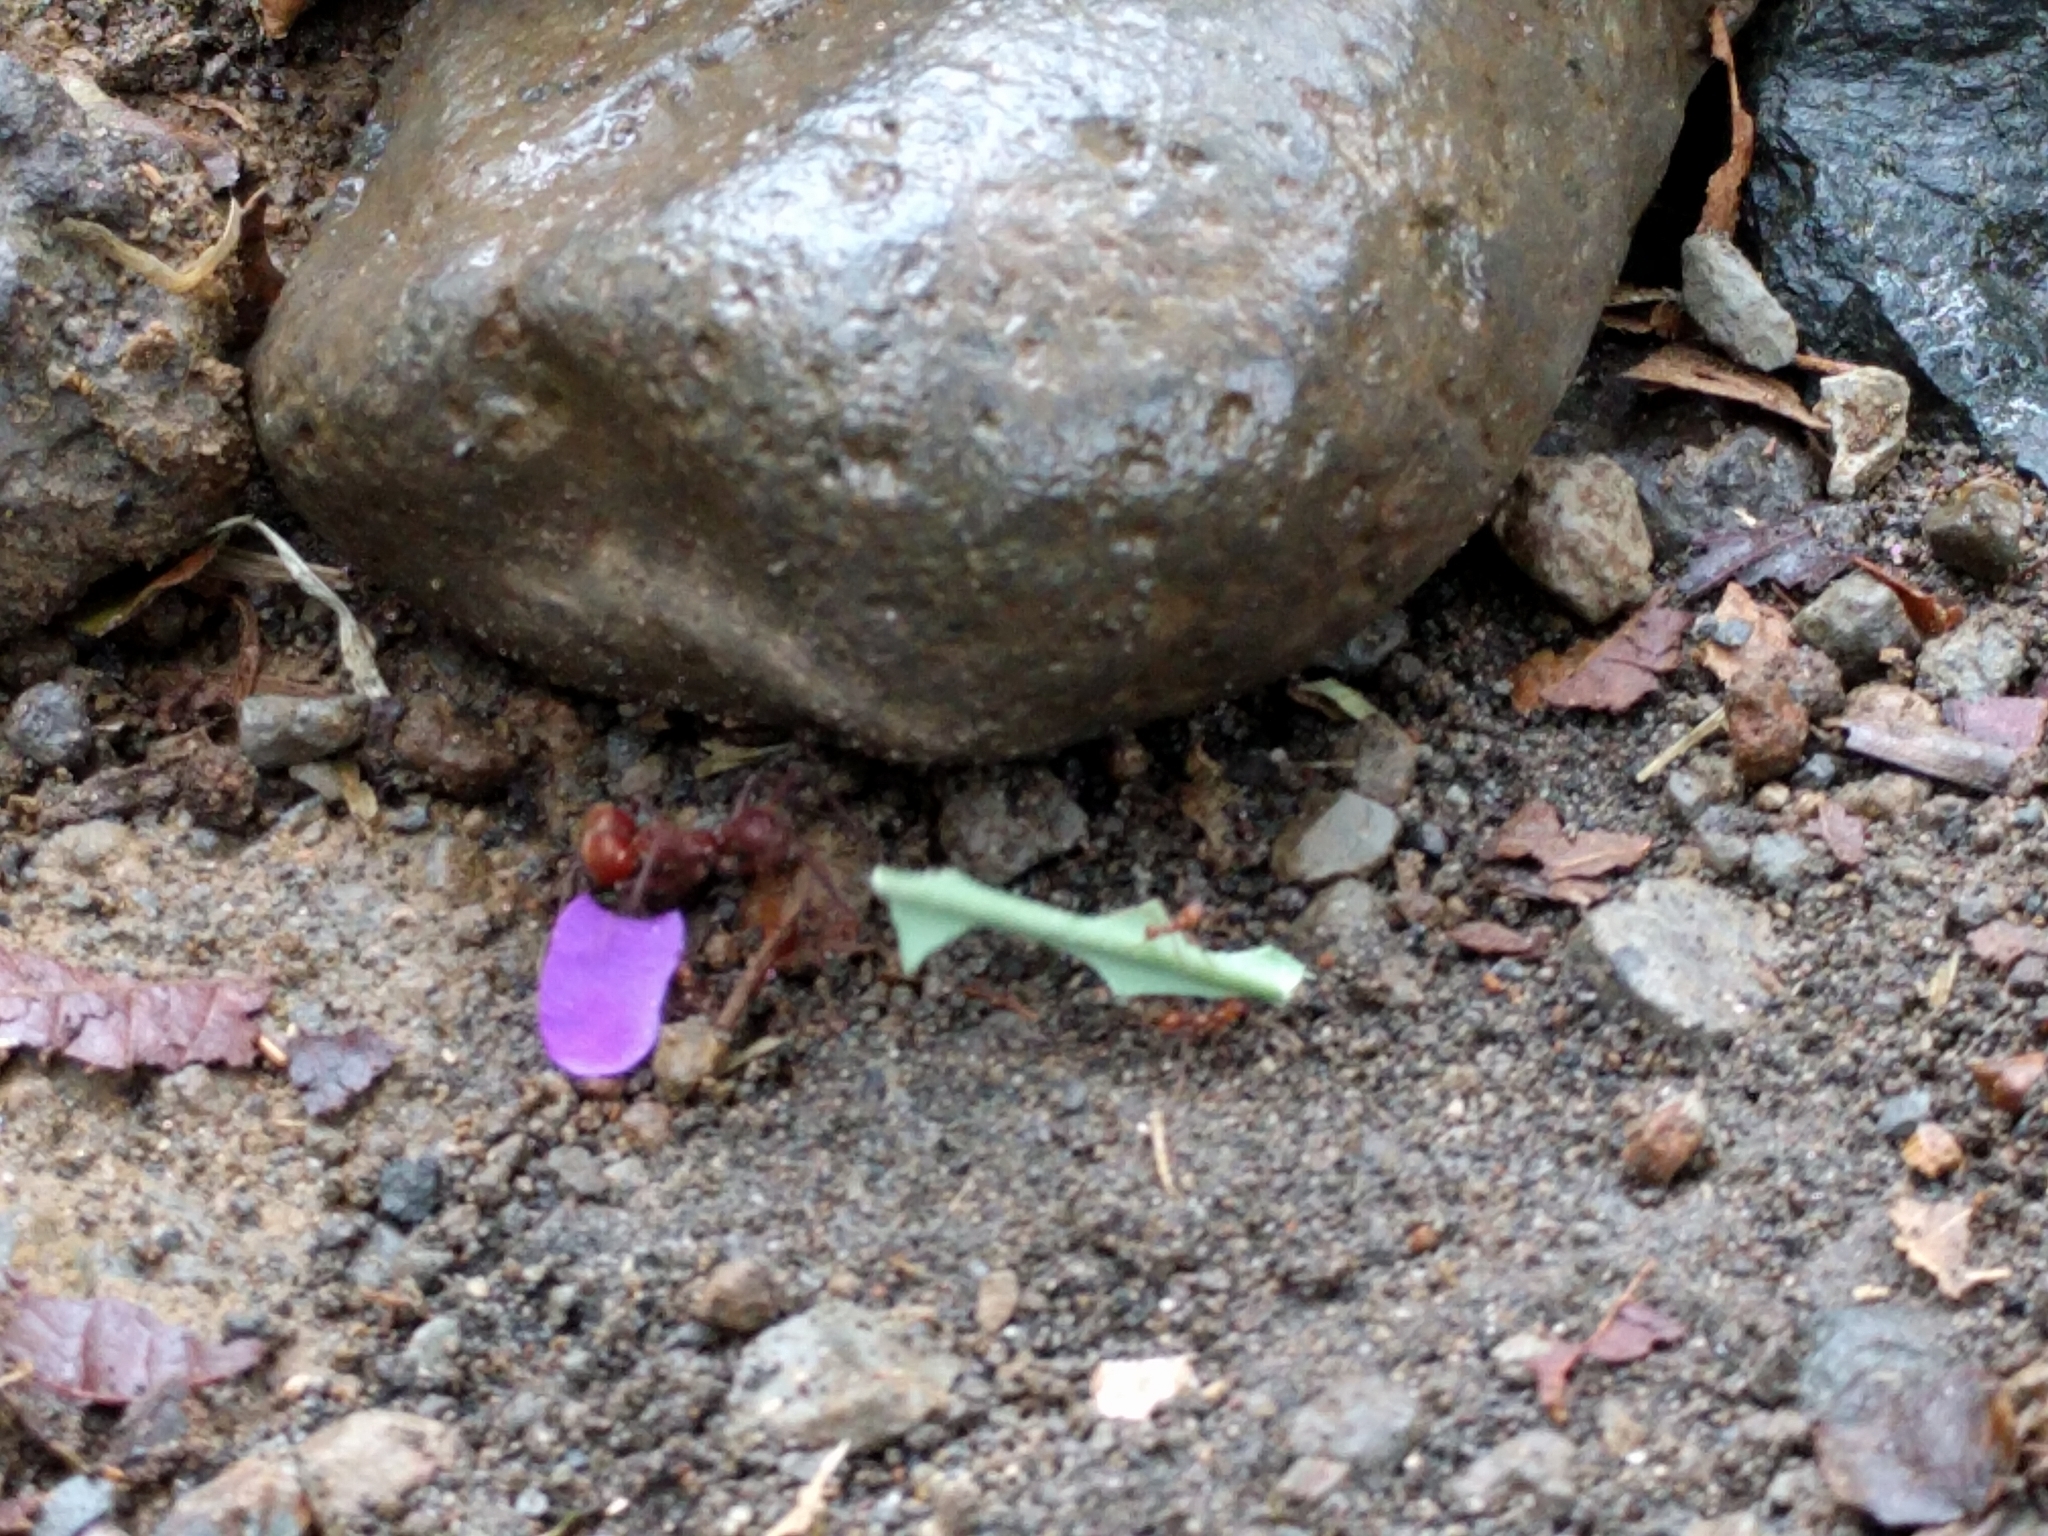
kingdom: Animalia
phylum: Arthropoda
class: Insecta
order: Hymenoptera
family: Formicidae
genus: Atta
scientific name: Atta cephalotes
